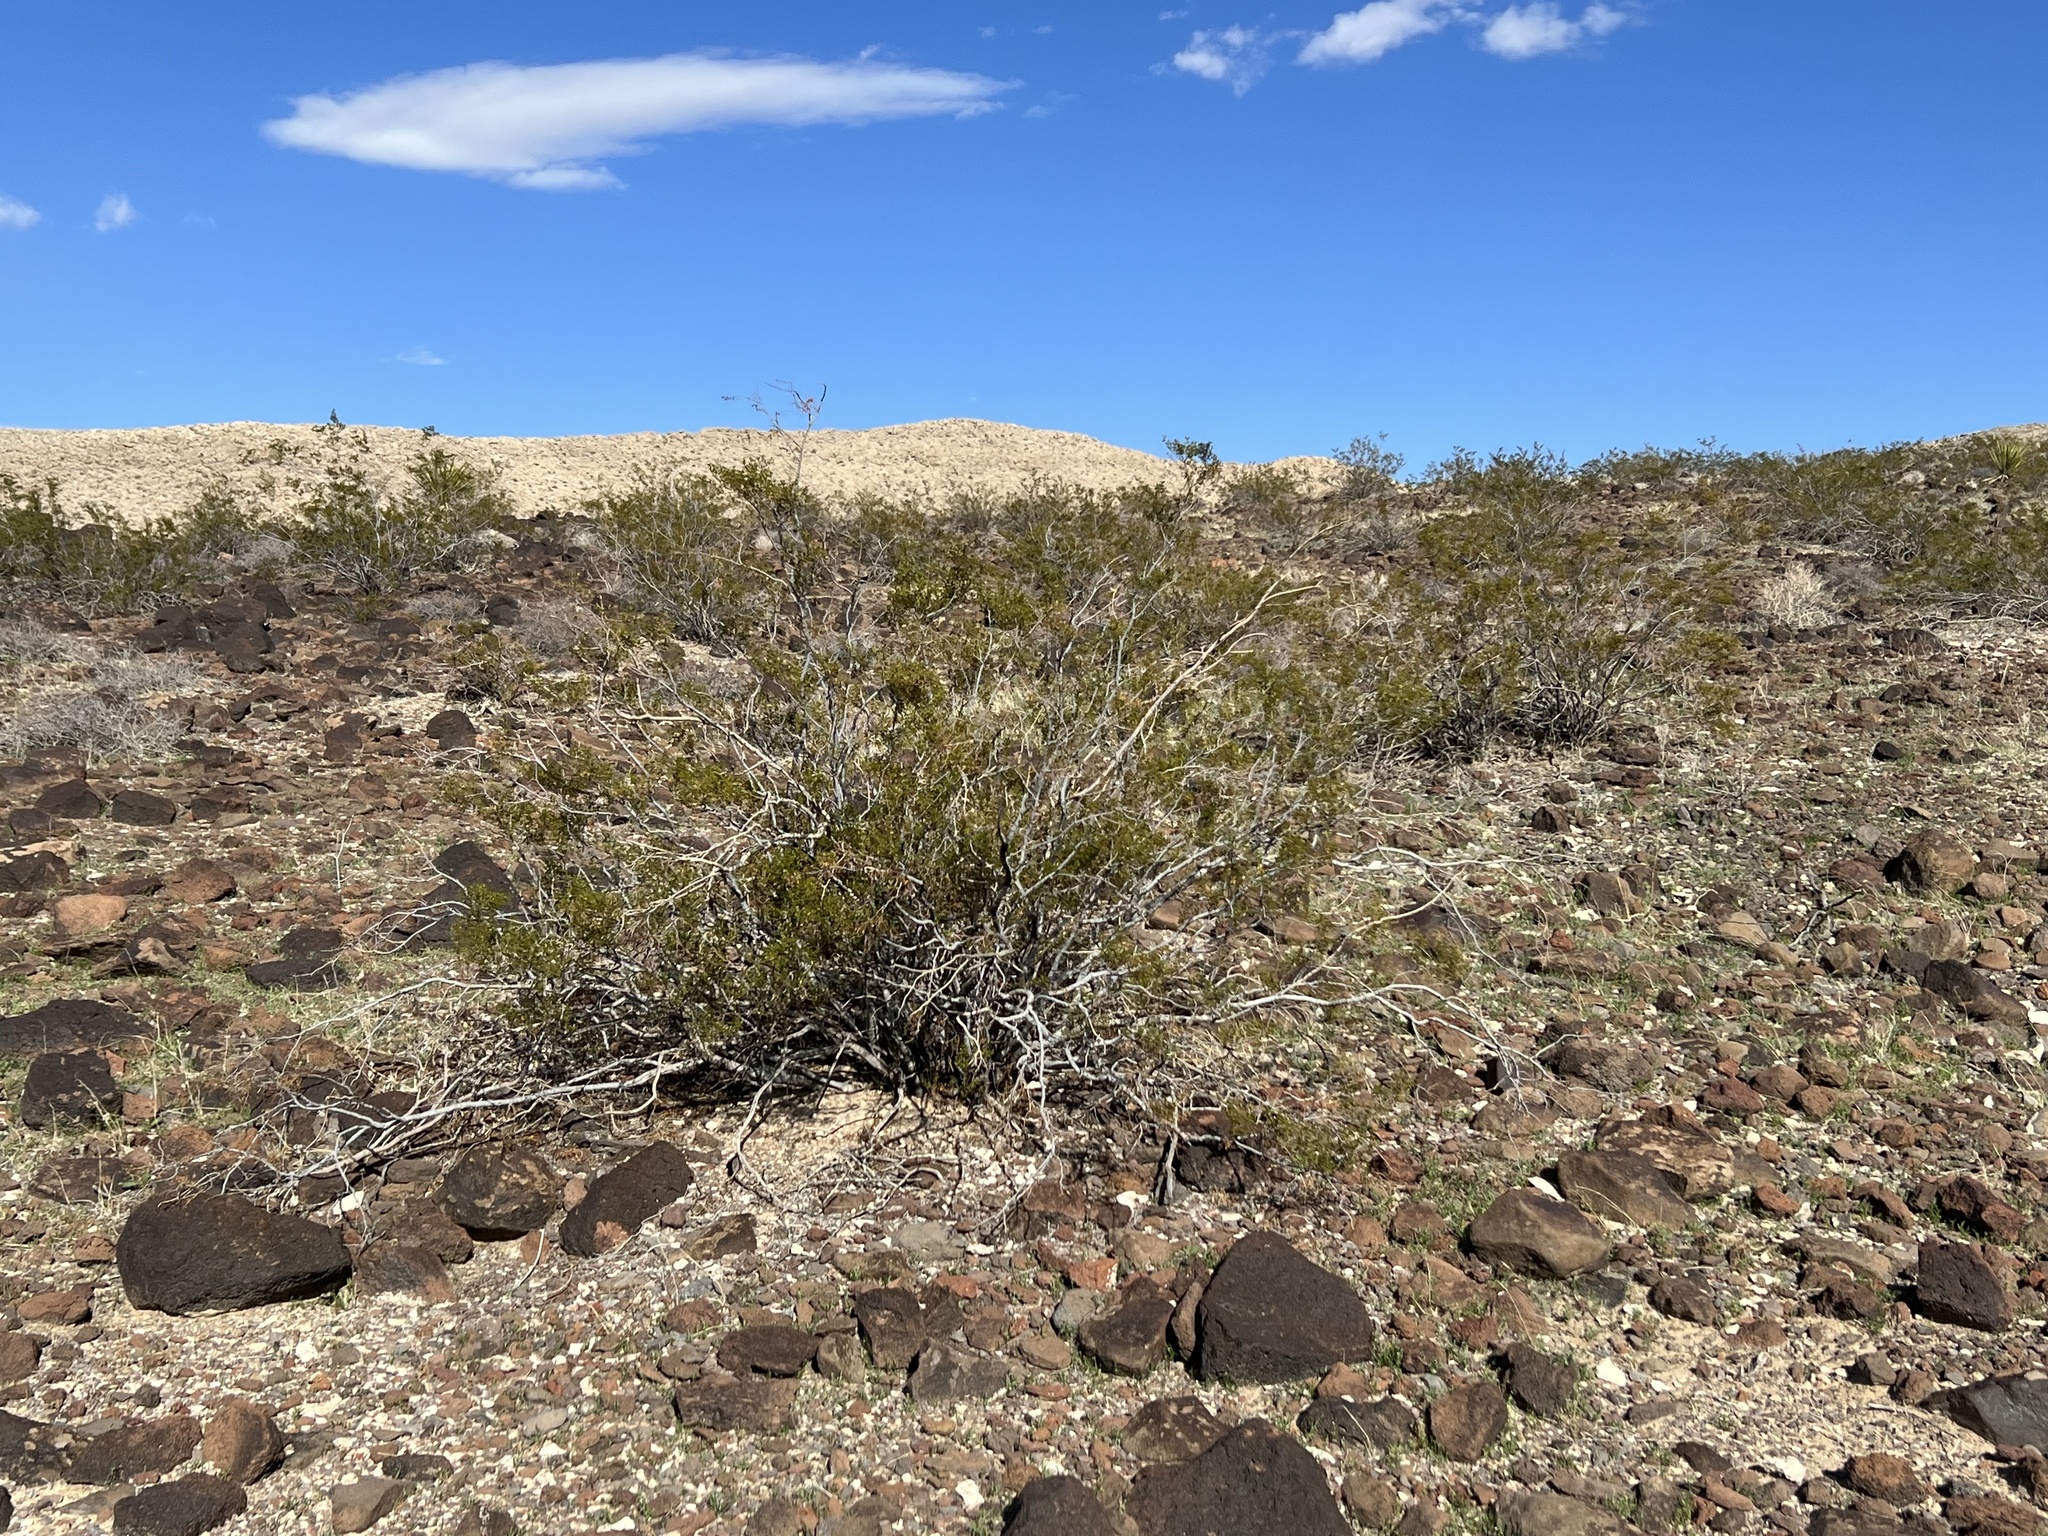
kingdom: Plantae
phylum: Tracheophyta
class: Magnoliopsida
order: Zygophyllales
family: Zygophyllaceae
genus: Larrea
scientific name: Larrea tridentata
